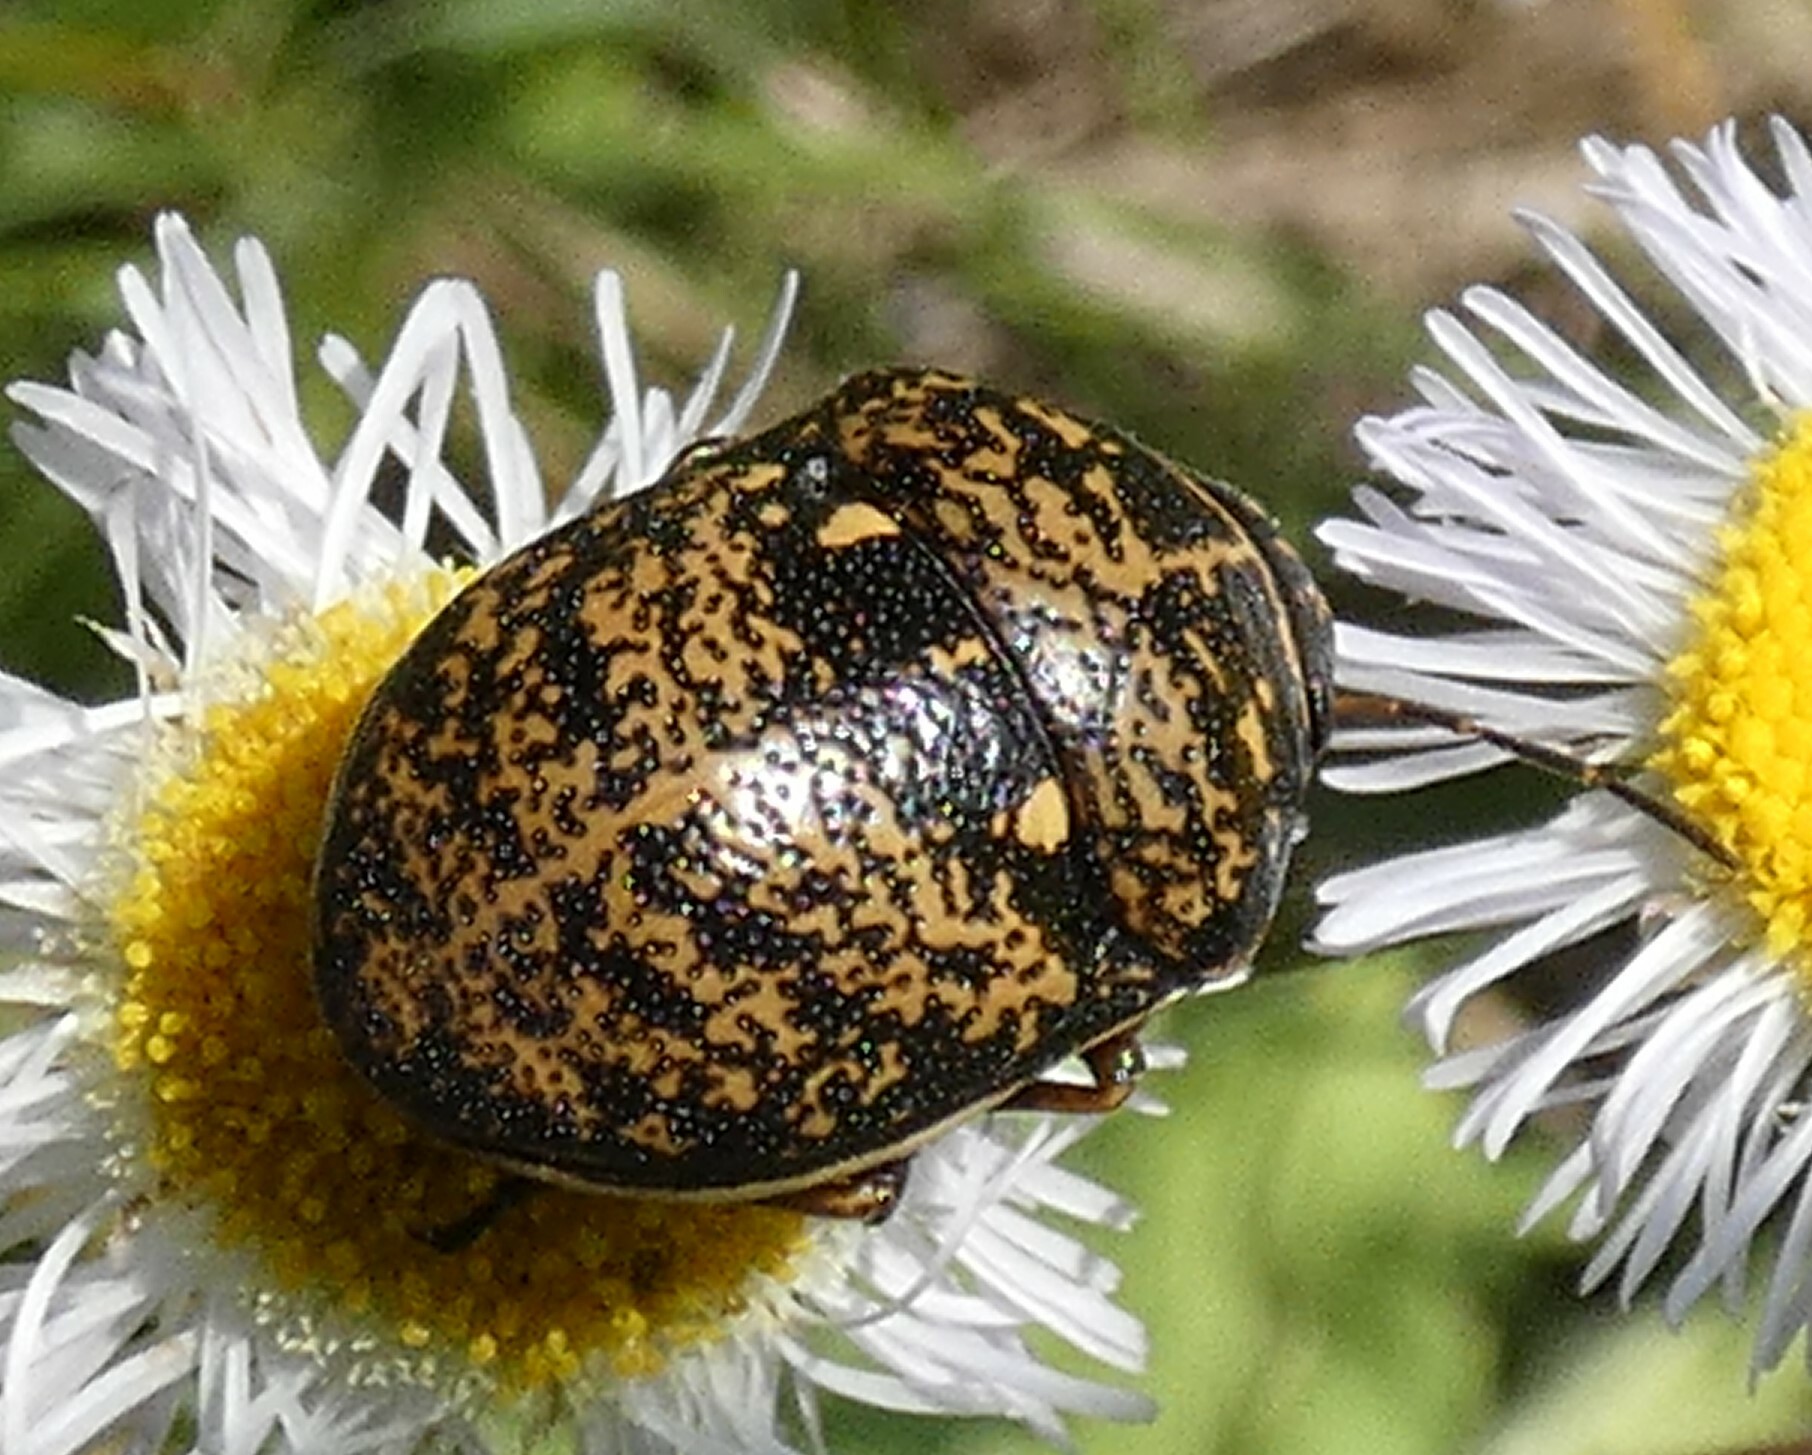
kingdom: Animalia
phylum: Arthropoda
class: Insecta
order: Hemiptera
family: Scutelleridae
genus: Orsilochides
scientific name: Orsilochides guttata
